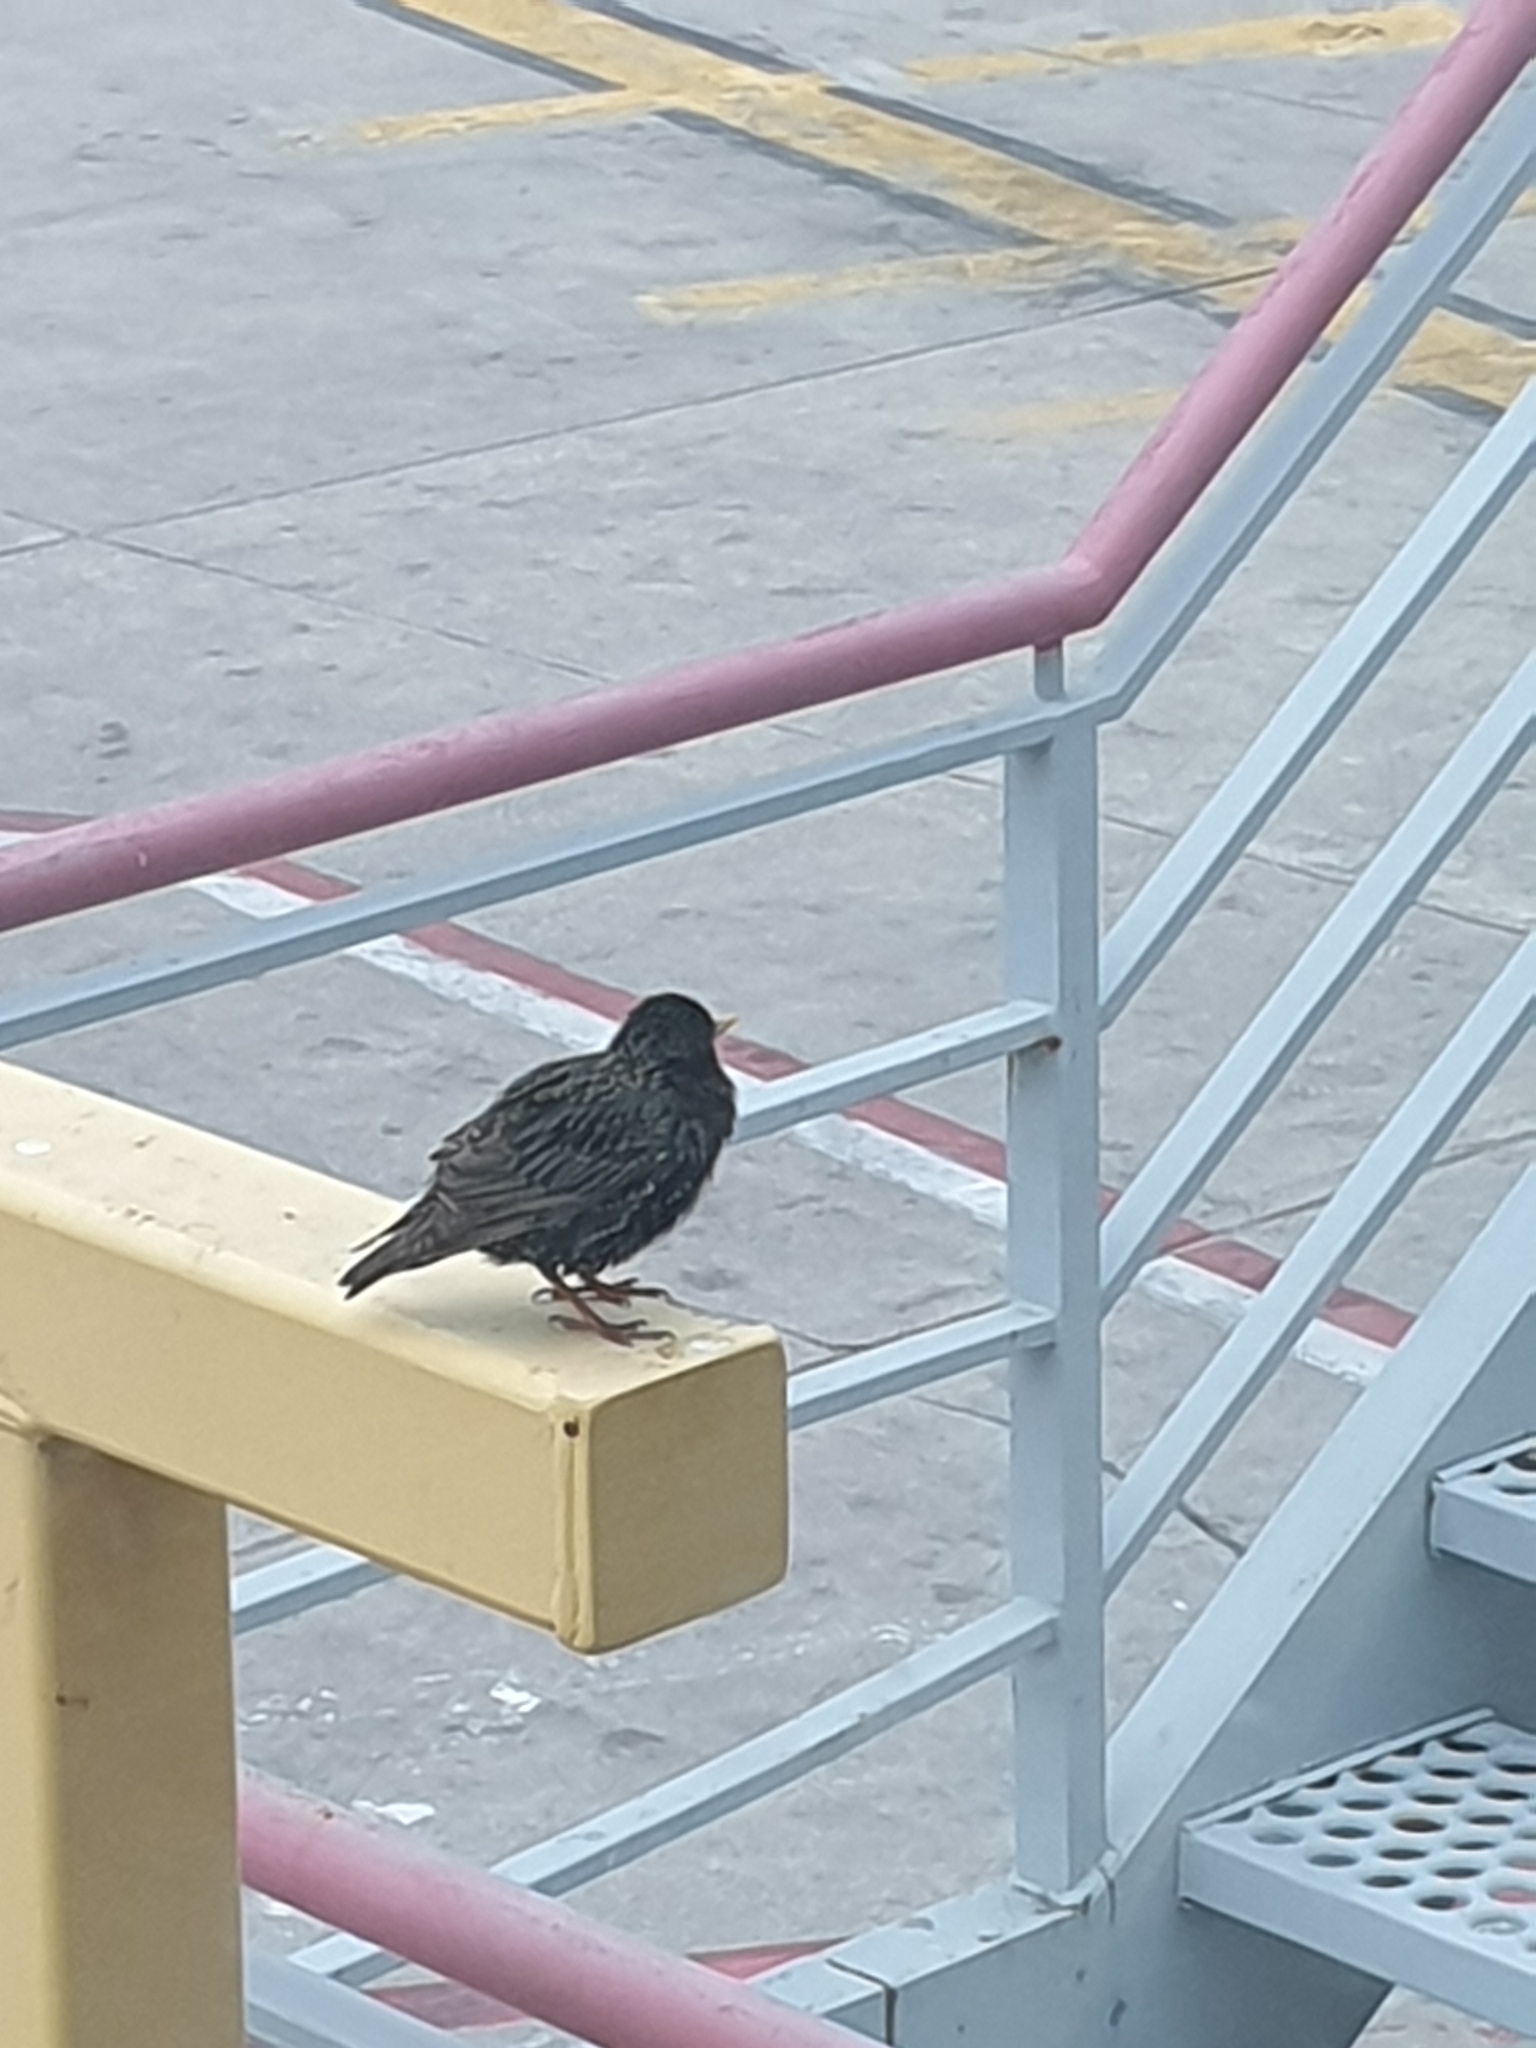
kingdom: Animalia
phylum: Chordata
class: Aves
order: Passeriformes
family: Sturnidae
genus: Sturnus
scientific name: Sturnus vulgaris
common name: Common starling
